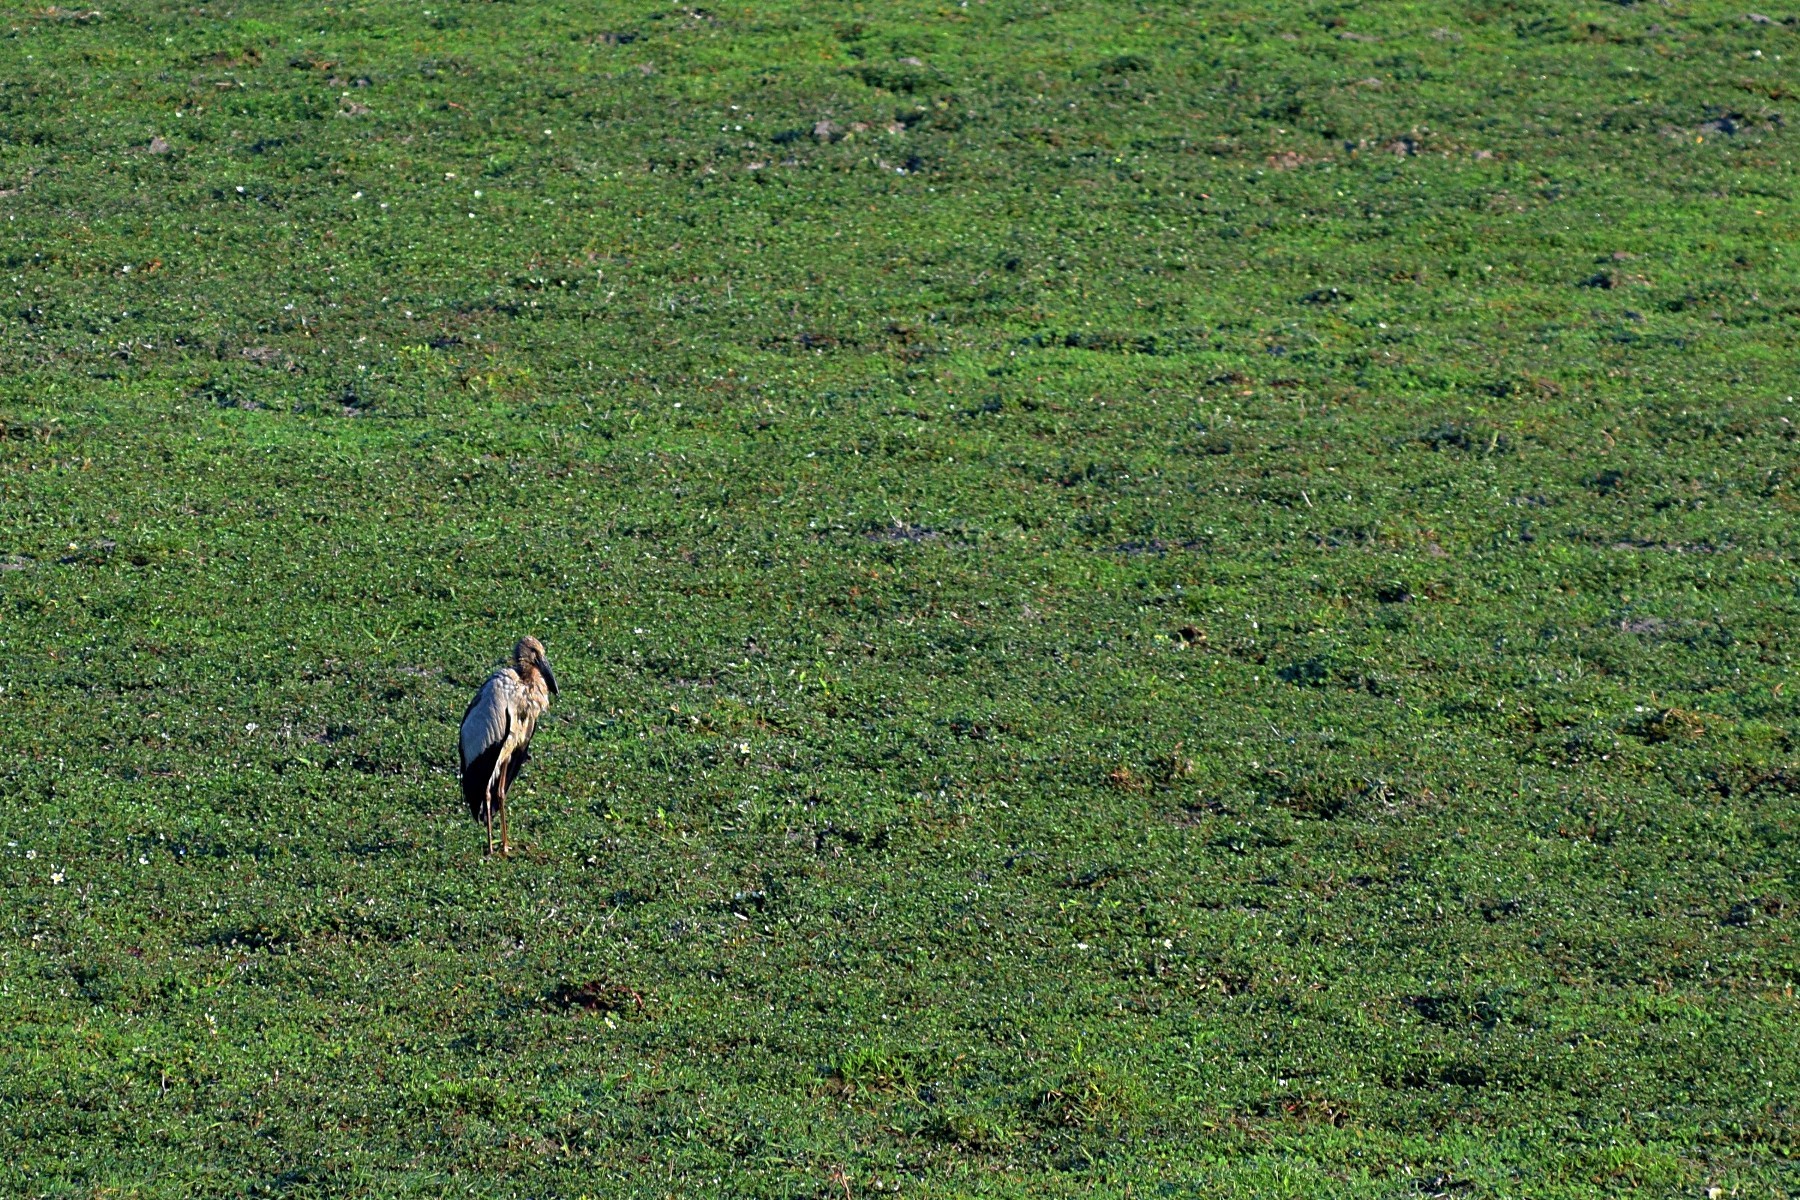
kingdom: Animalia
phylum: Chordata
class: Aves
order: Ciconiiformes
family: Ciconiidae
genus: Anastomus
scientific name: Anastomus oscitans
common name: Asian openbill
